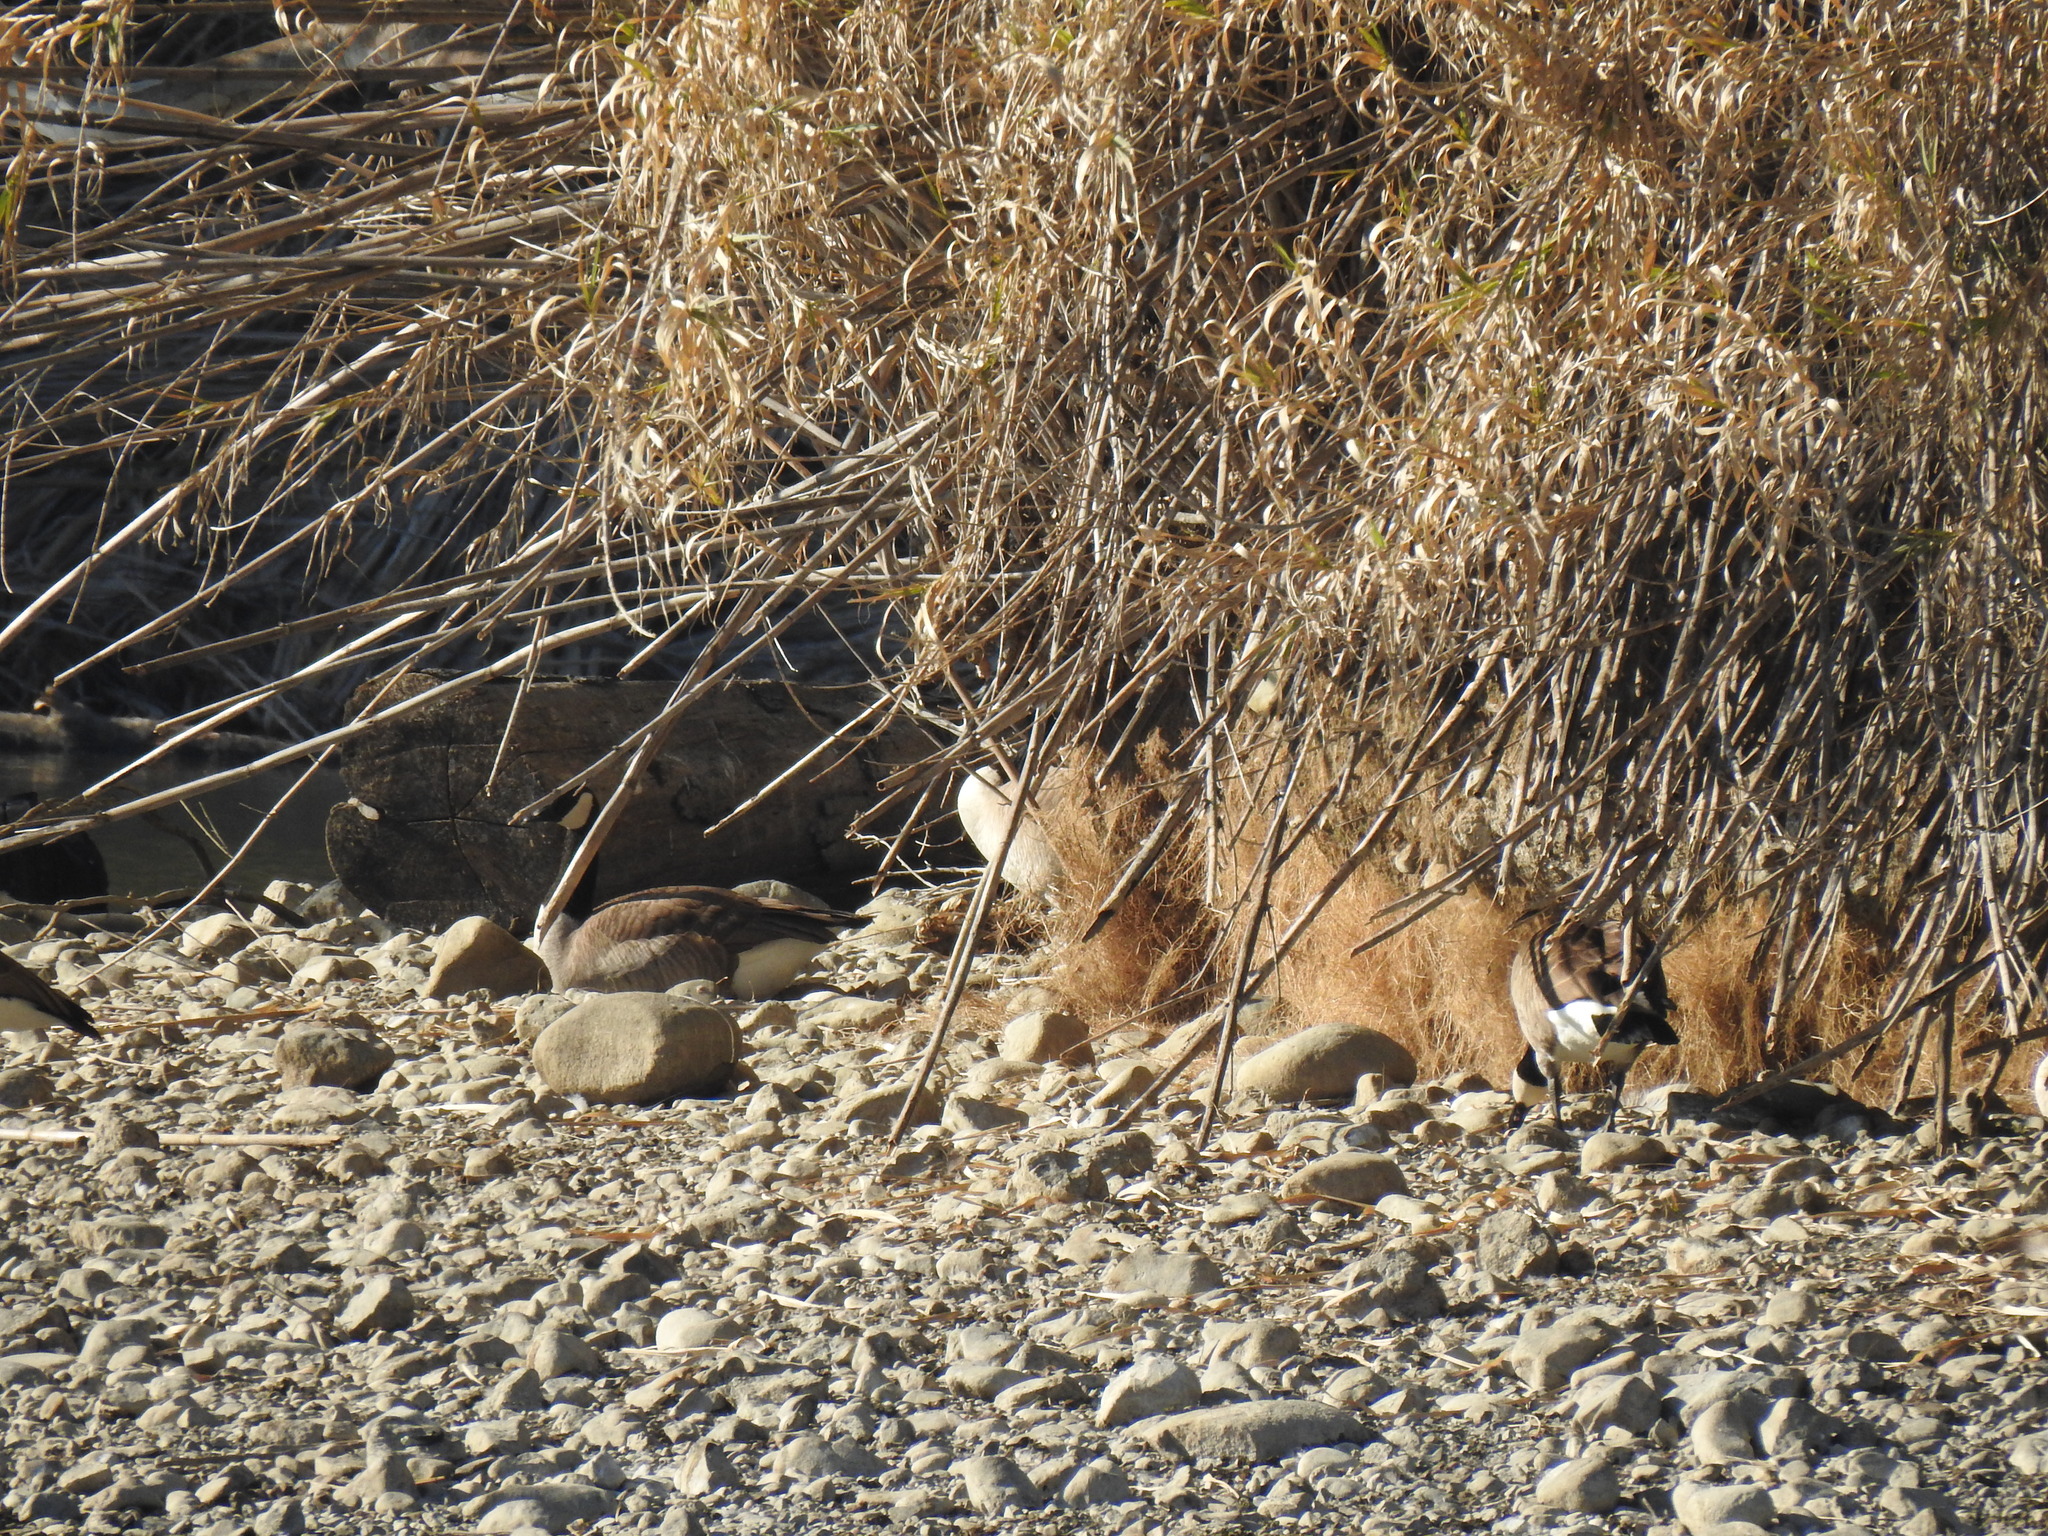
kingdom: Animalia
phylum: Chordata
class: Aves
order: Anseriformes
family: Anatidae
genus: Branta
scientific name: Branta canadensis
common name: Canada goose
